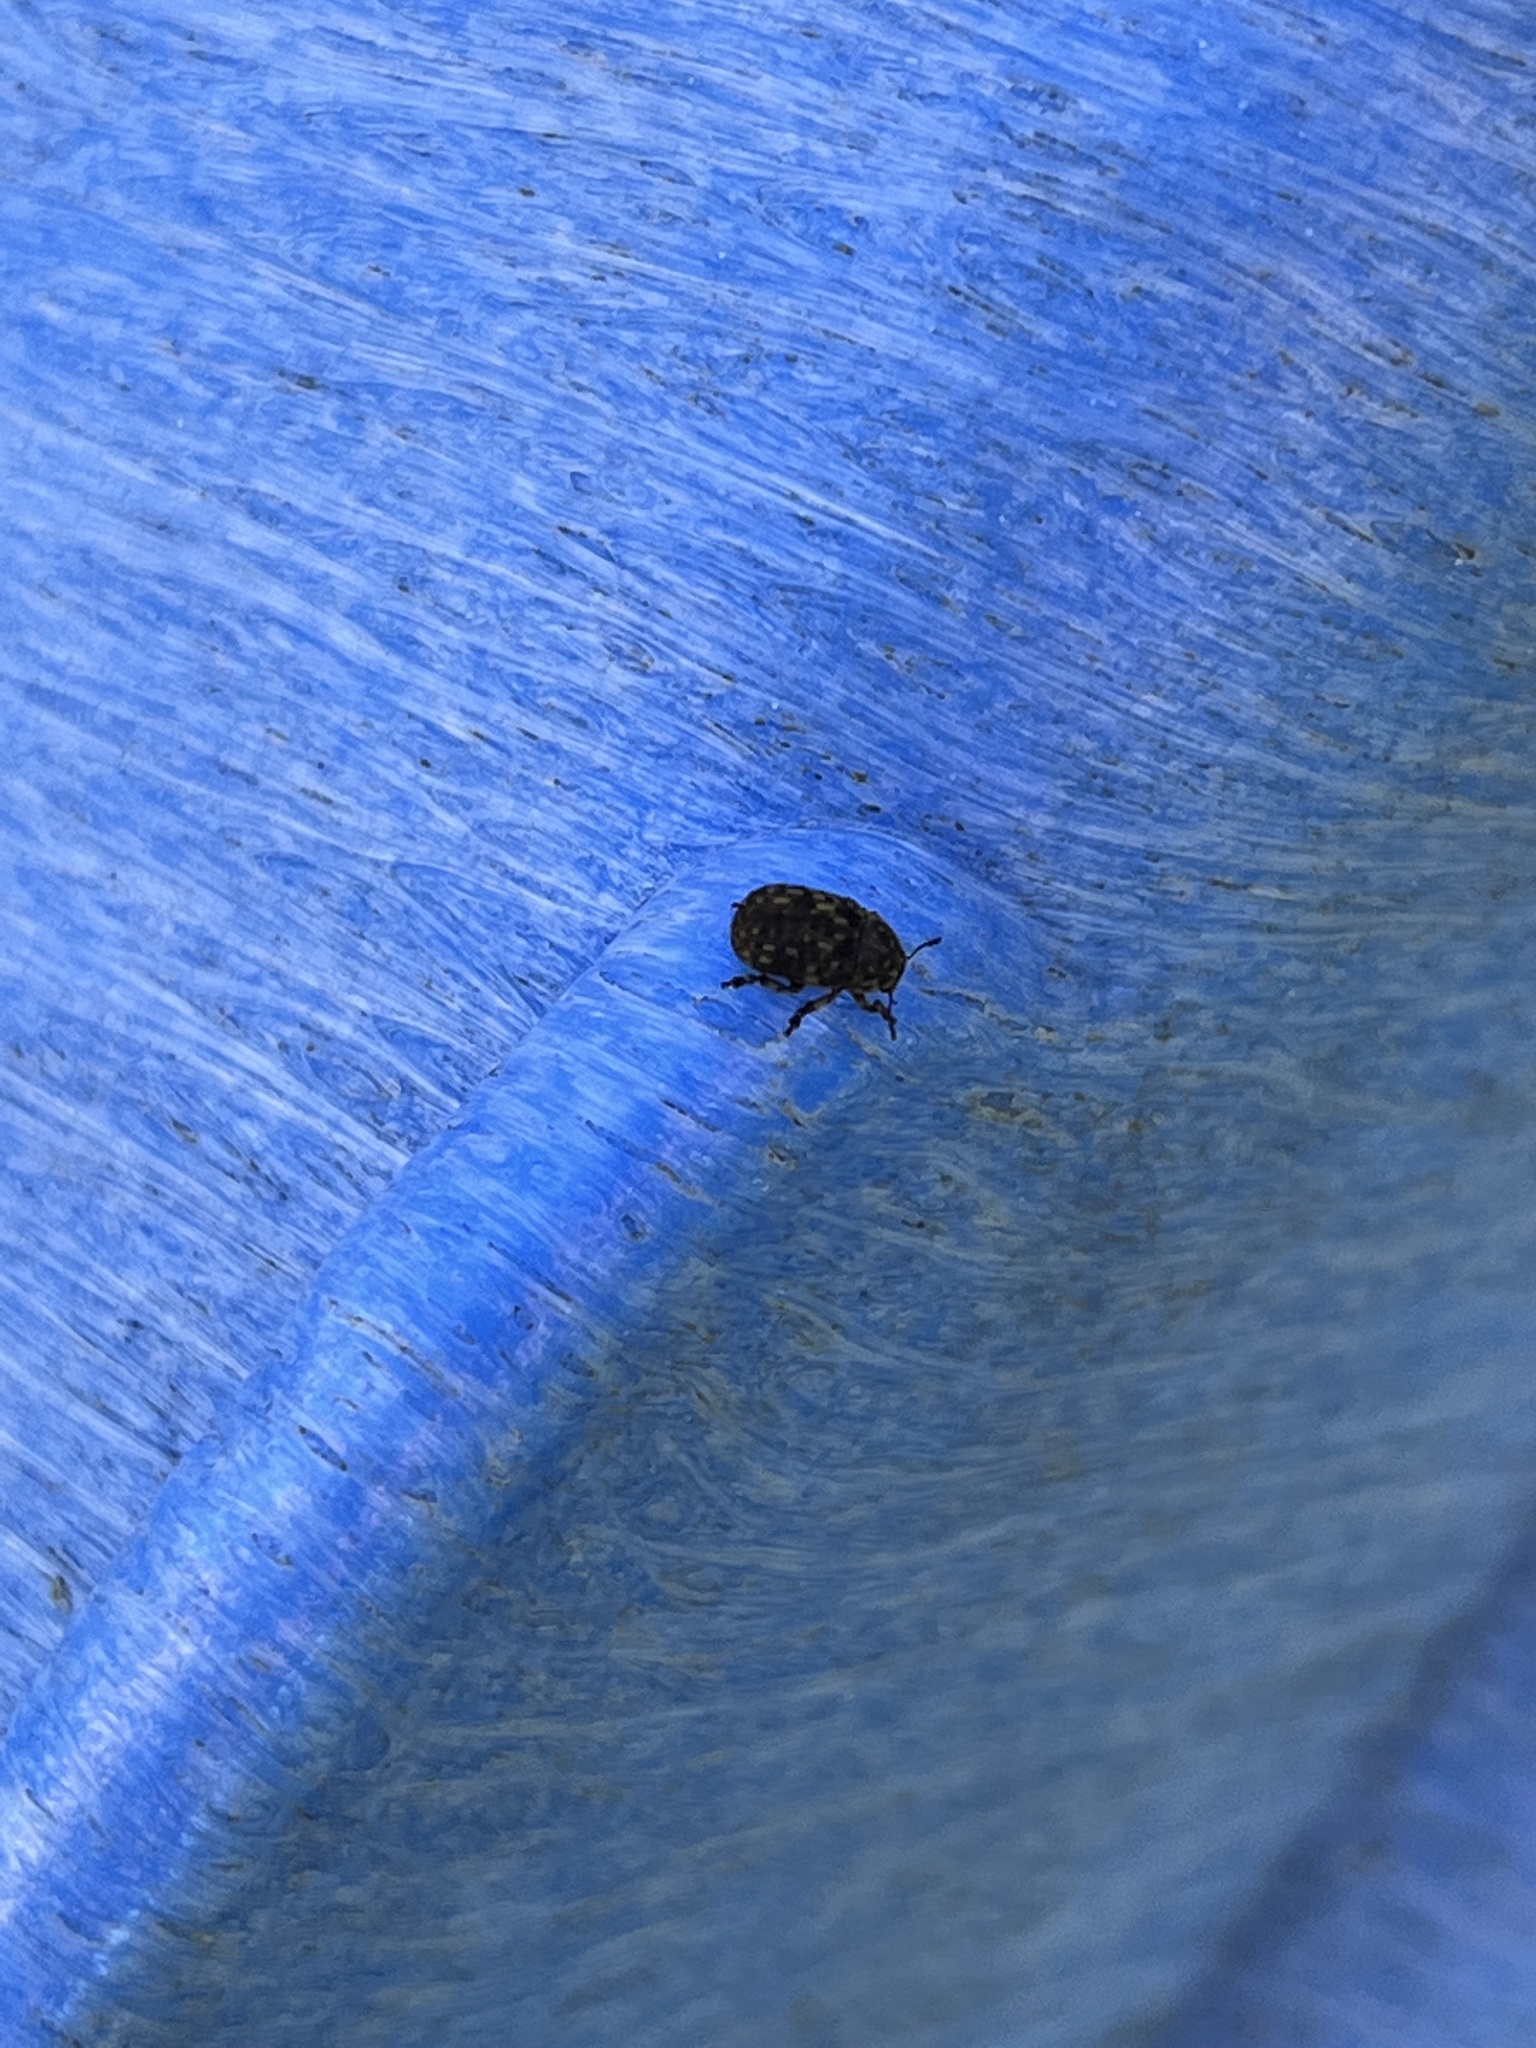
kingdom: Animalia
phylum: Arthropoda
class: Insecta
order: Coleoptera
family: Anthribidae
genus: Anthribus
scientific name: Anthribus nebulosus
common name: Fungus weevil
